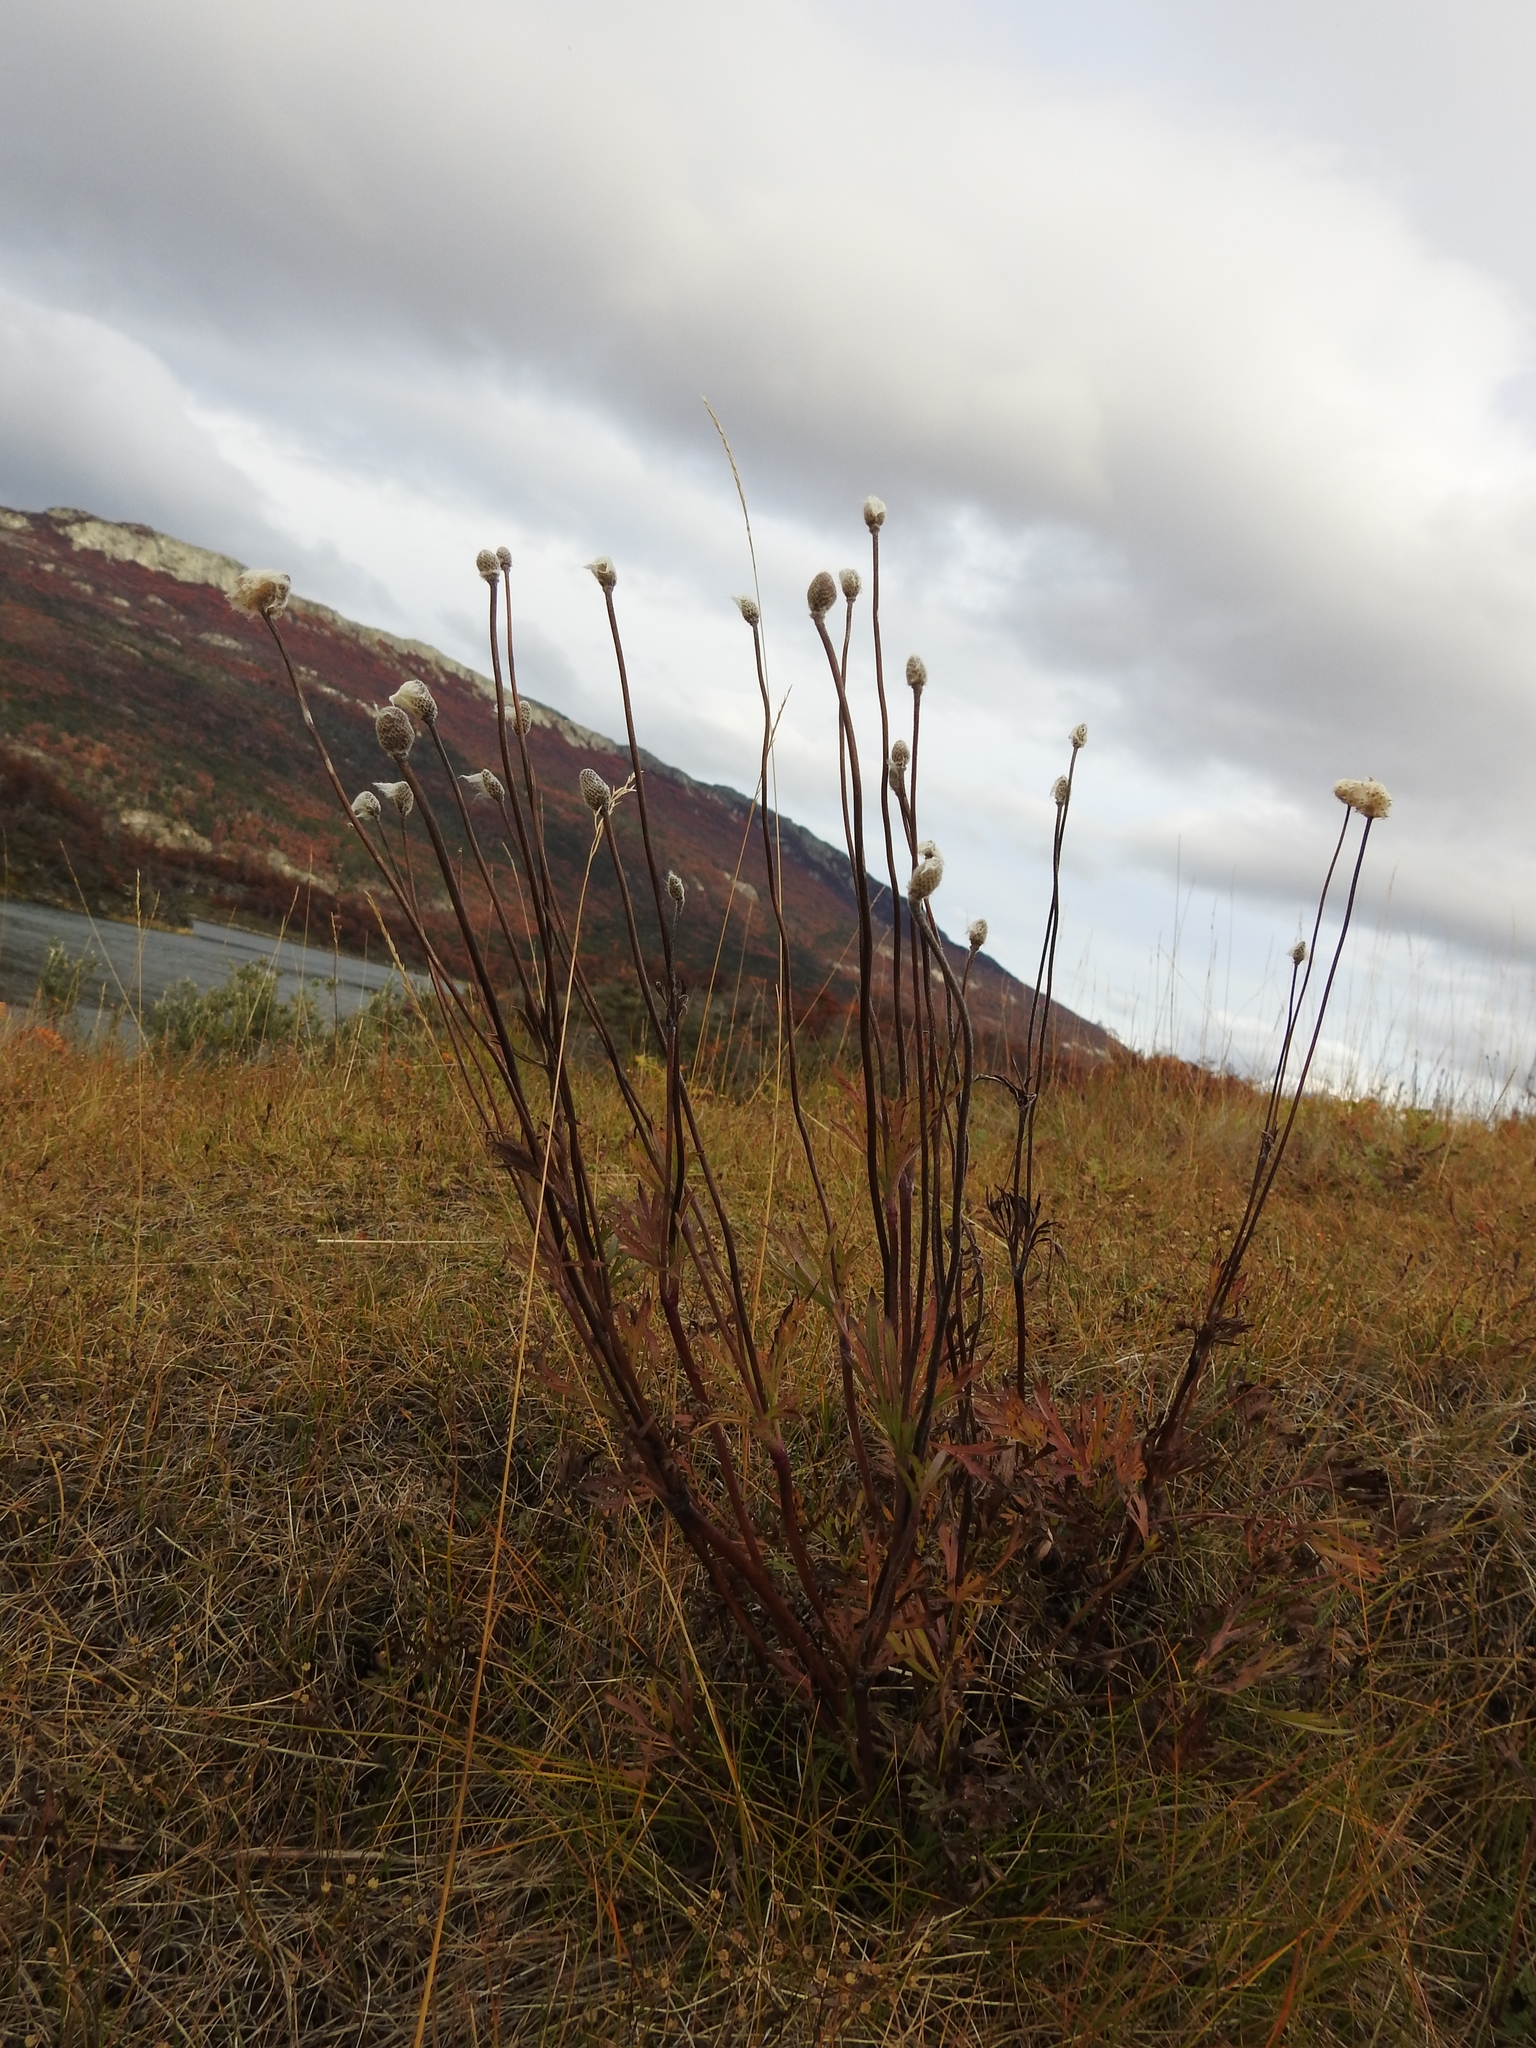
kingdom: Plantae
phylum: Tracheophyta
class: Magnoliopsida
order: Ranunculales
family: Ranunculaceae
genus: Anemone
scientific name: Anemone multifida
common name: Bird's-foot anemone
